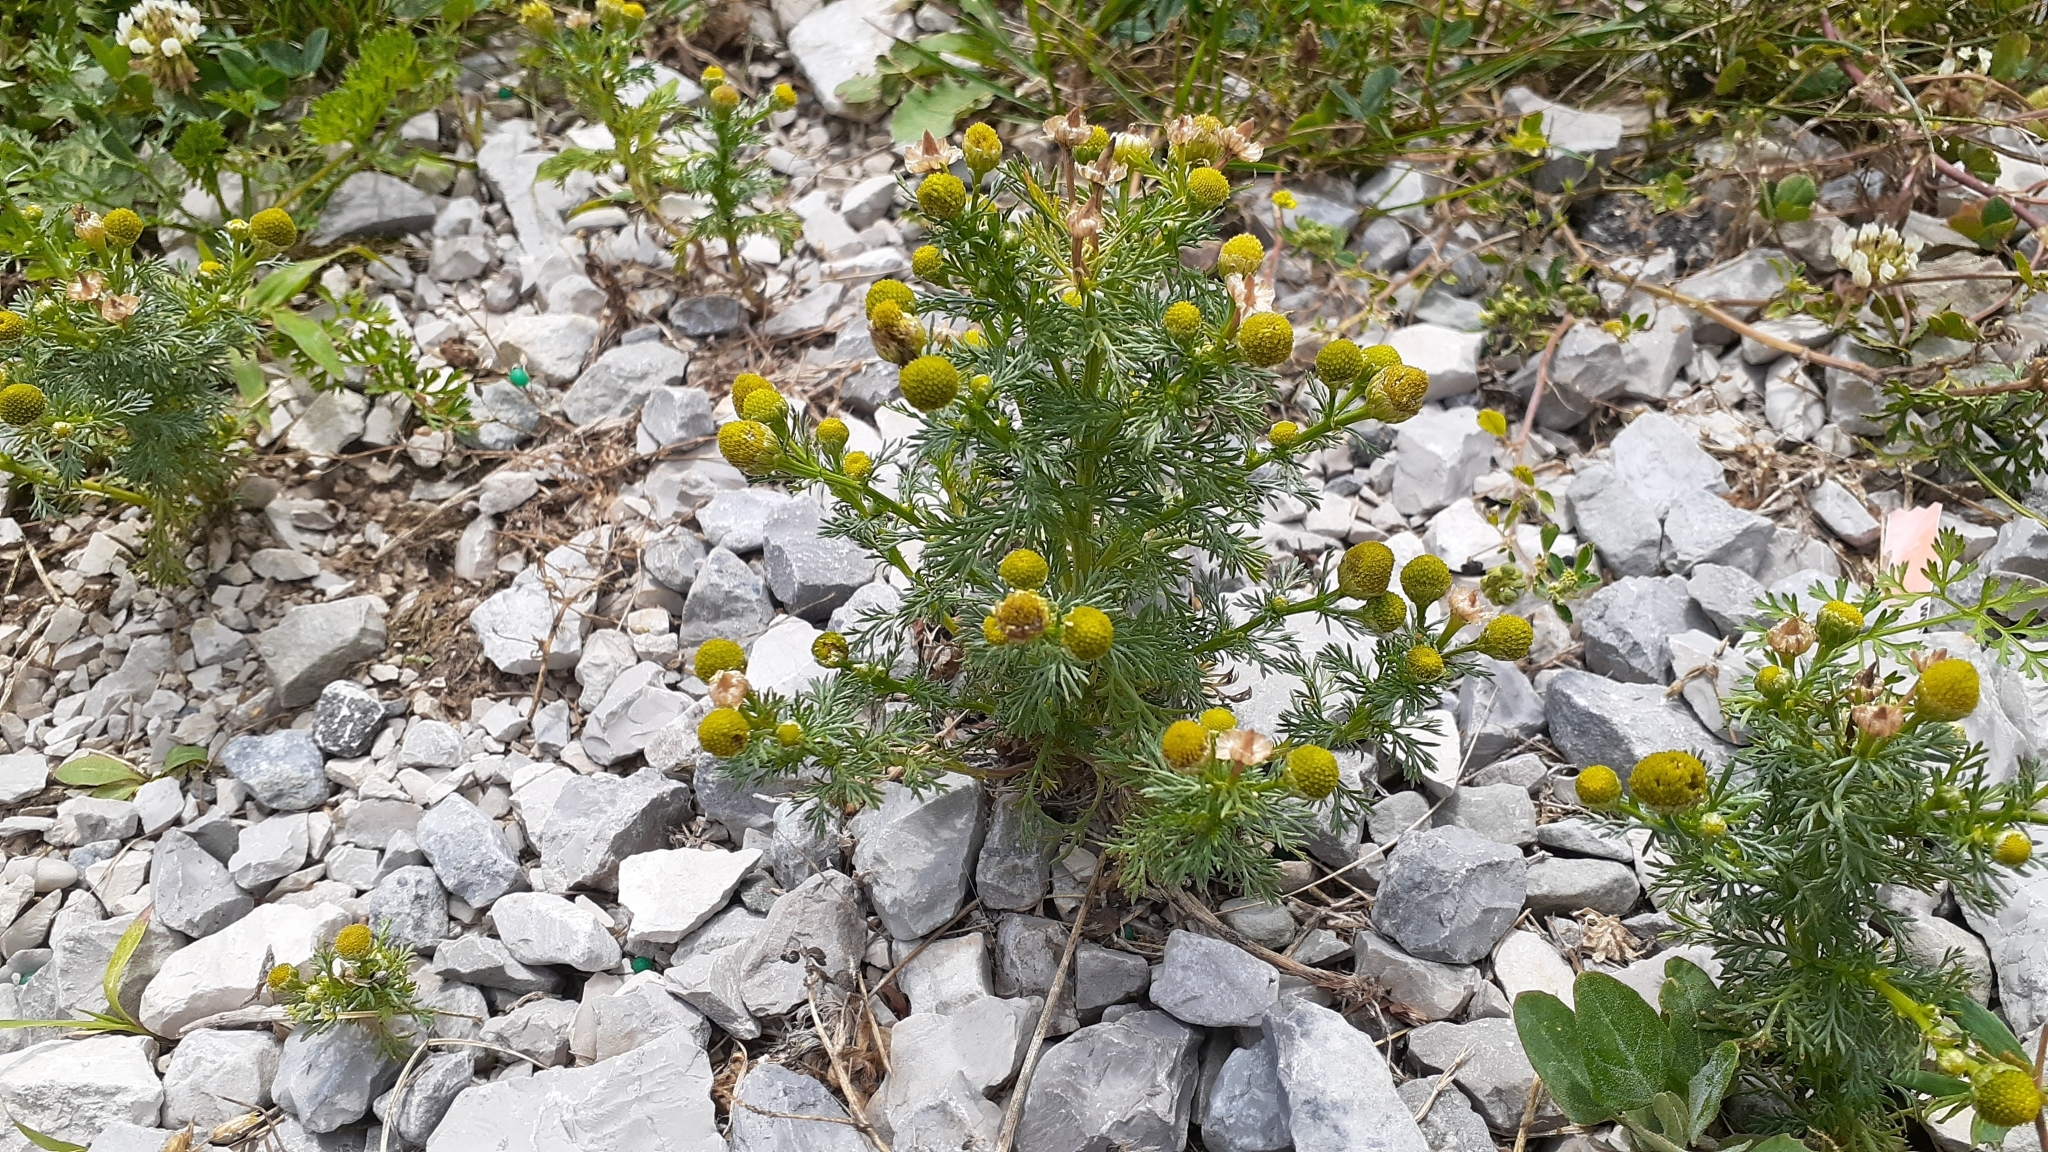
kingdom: Plantae
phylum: Tracheophyta
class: Magnoliopsida
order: Asterales
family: Asteraceae
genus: Matricaria
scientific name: Matricaria discoidea
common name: Disc mayweed
